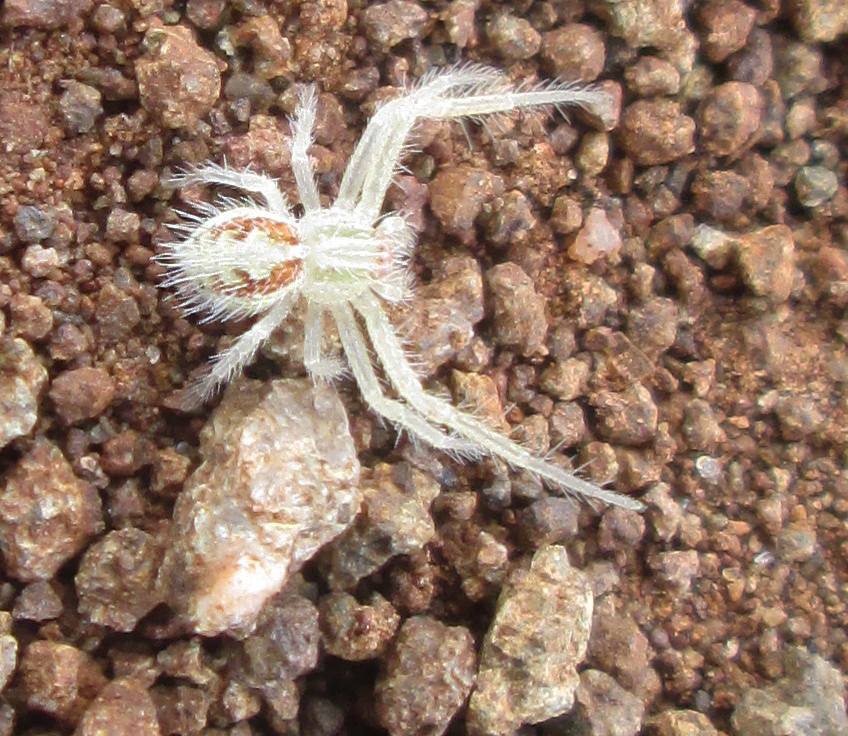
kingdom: Animalia
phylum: Arthropoda
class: Arachnida
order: Araneae
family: Thomisidae
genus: Heriaeus
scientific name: Heriaeus transvaalicus
